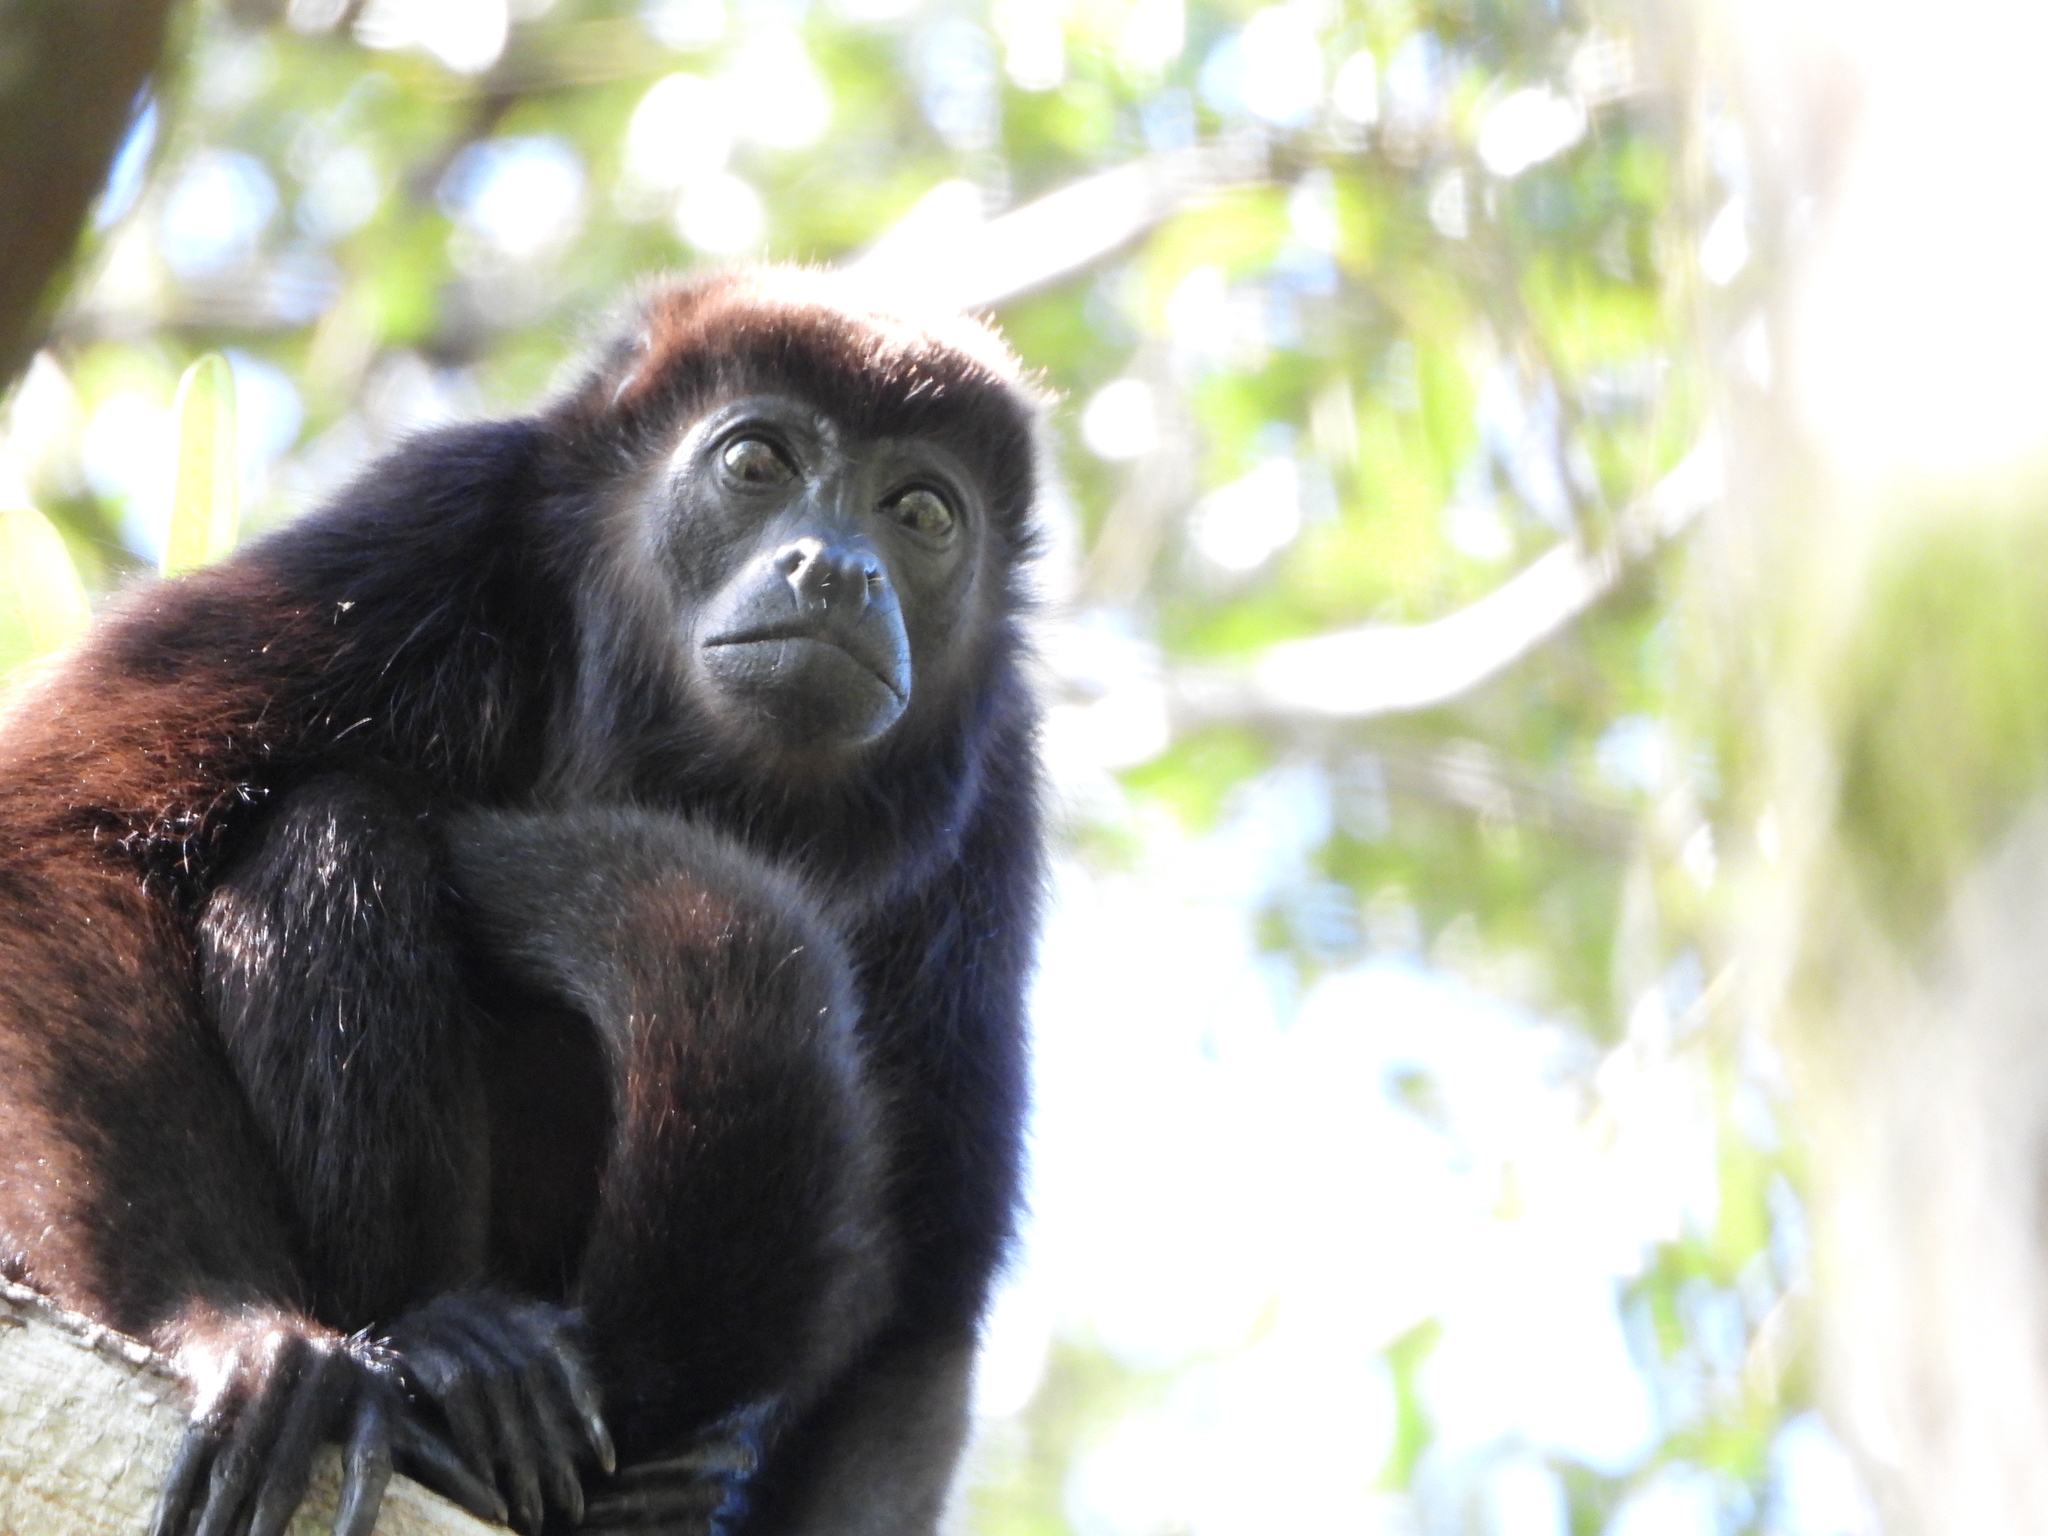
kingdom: Animalia
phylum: Chordata
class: Mammalia
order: Primates
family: Atelidae
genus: Alouatta
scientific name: Alouatta palliata
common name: Mantled howler
